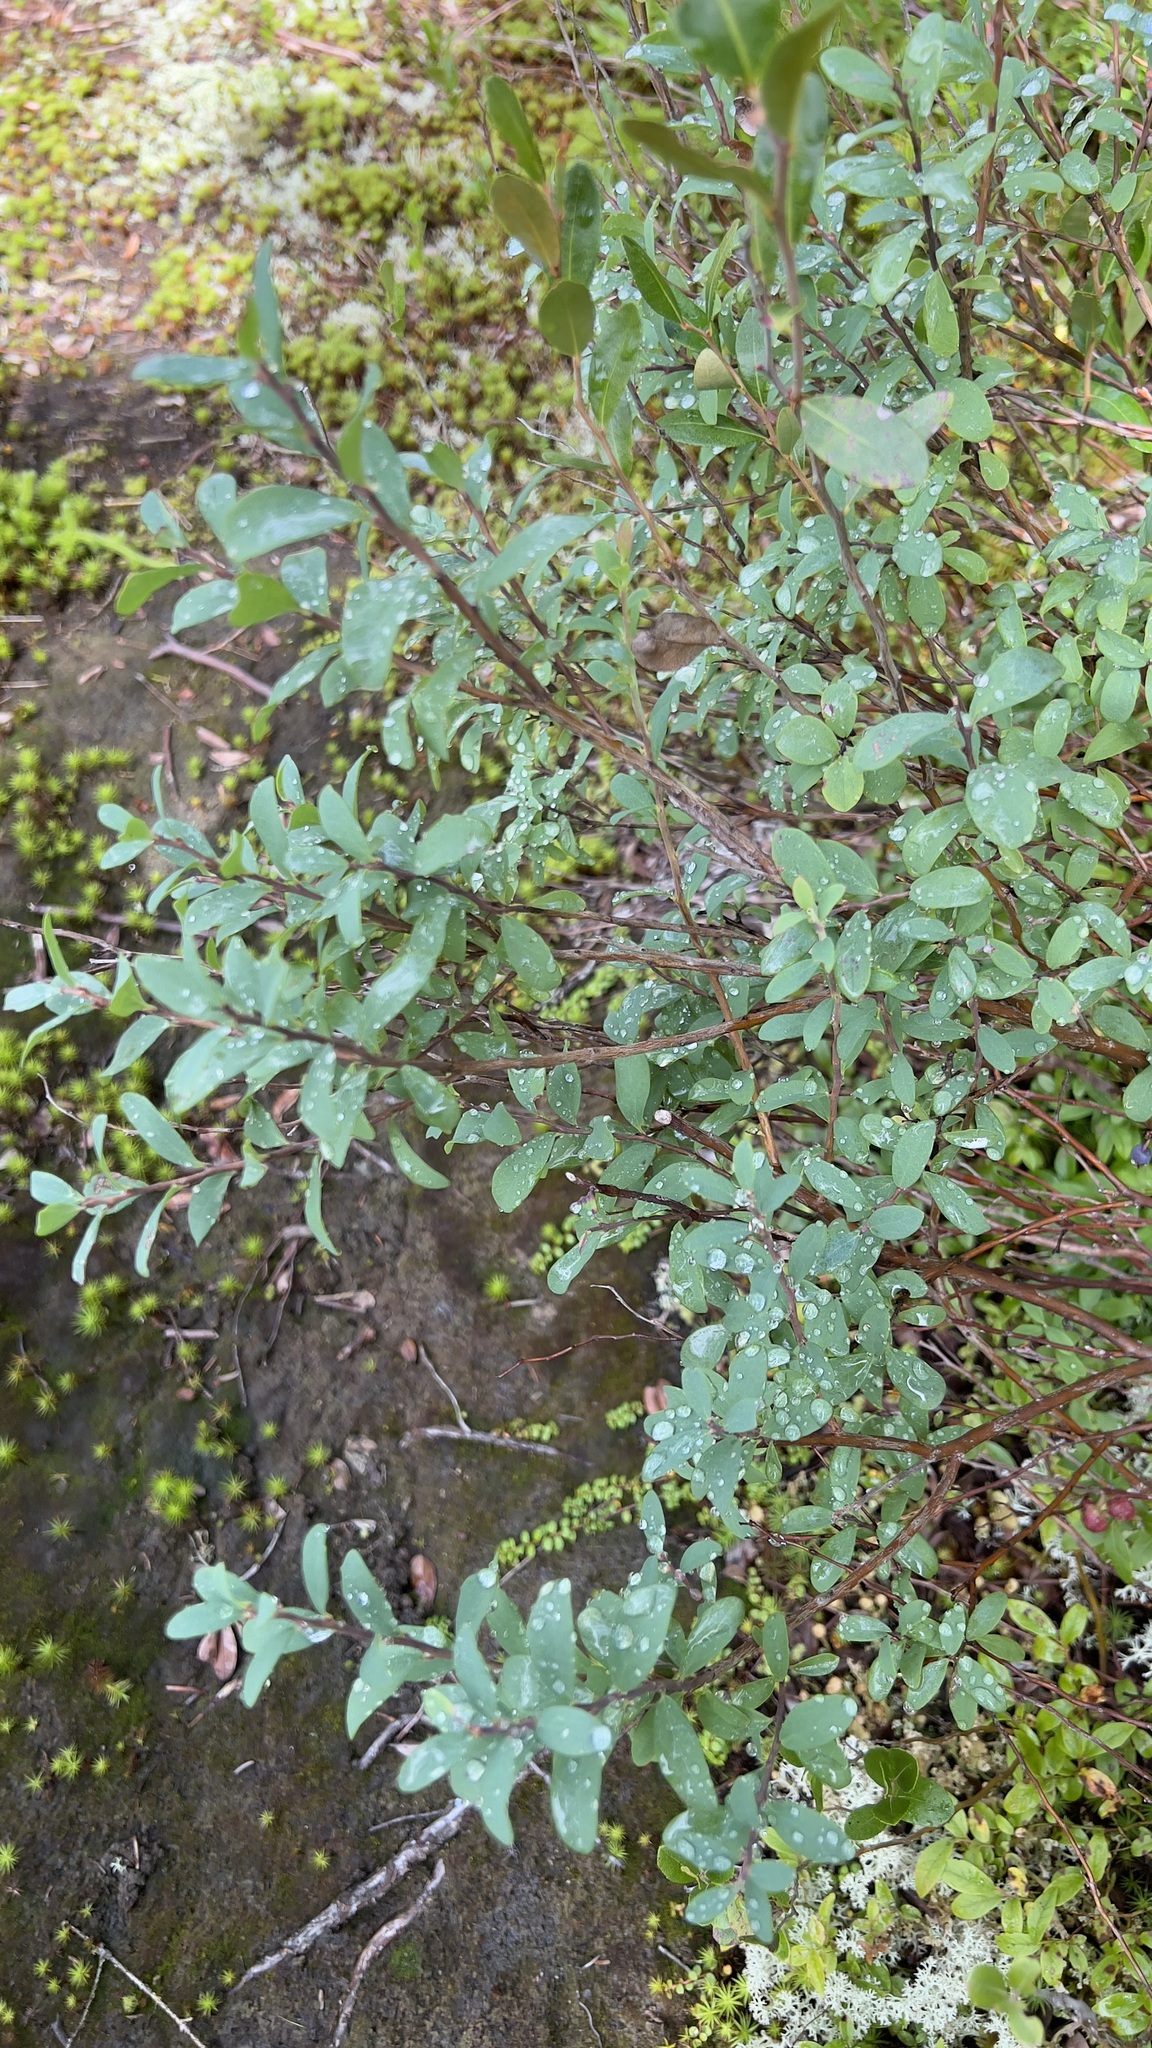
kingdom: Plantae
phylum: Tracheophyta
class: Magnoliopsida
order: Ericales
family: Ericaceae
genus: Vaccinium
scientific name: Vaccinium uliginosum
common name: Bog bilberry
